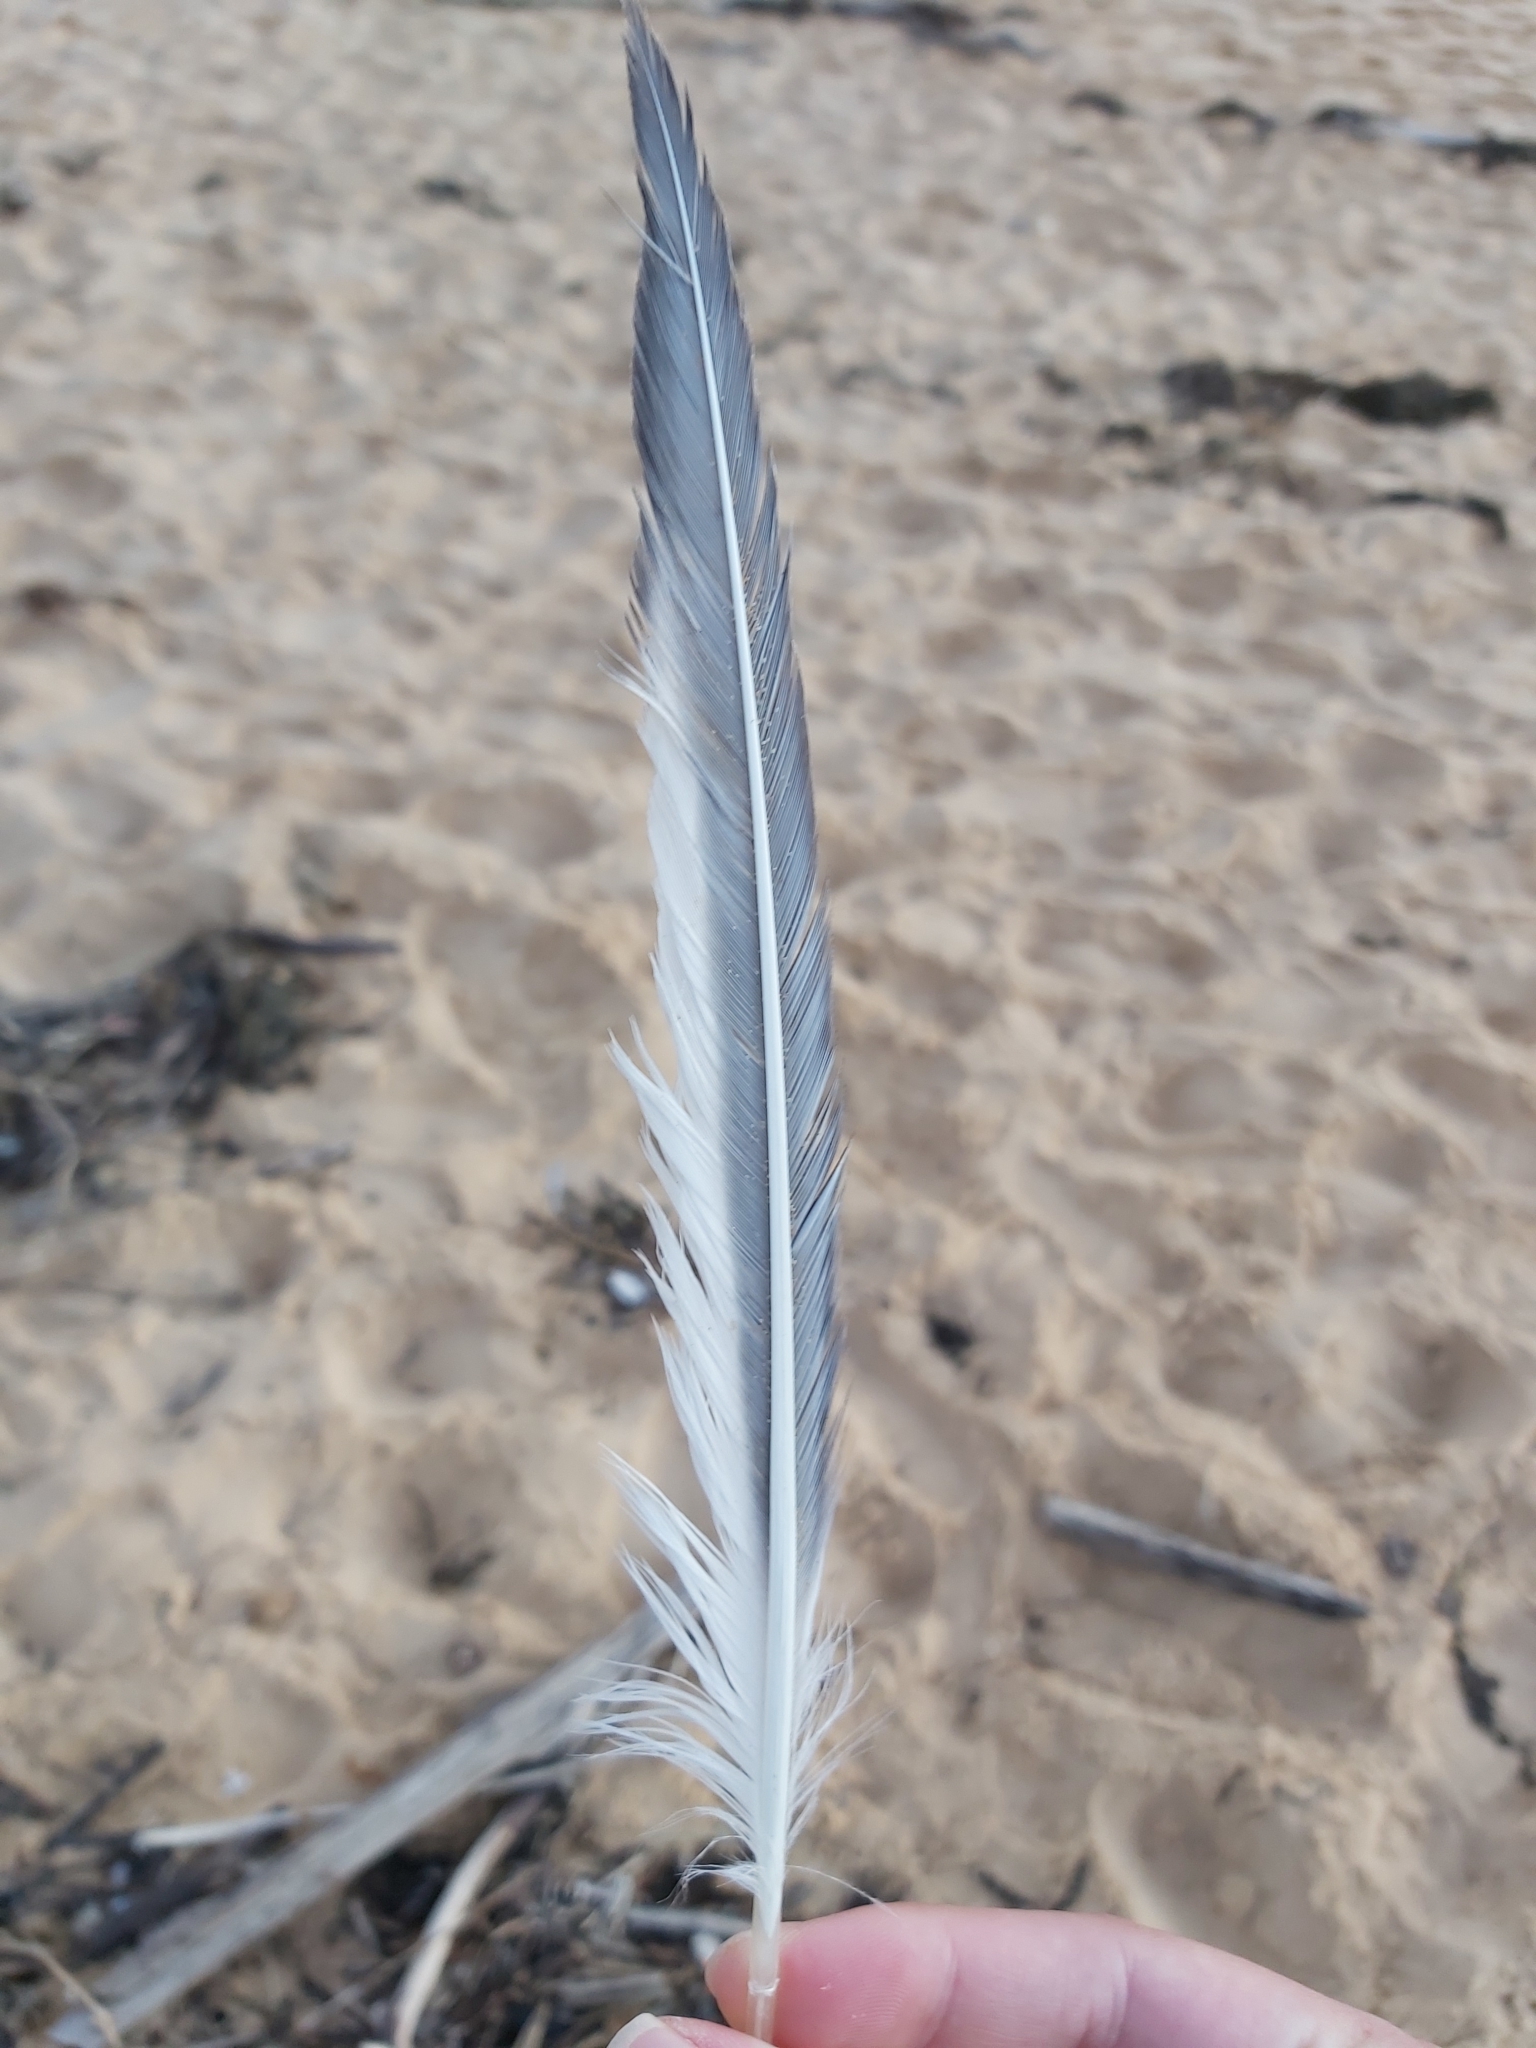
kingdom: Animalia
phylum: Chordata
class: Aves
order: Charadriiformes
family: Laridae
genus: Thalasseus
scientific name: Thalasseus bergii
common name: Greater crested tern
